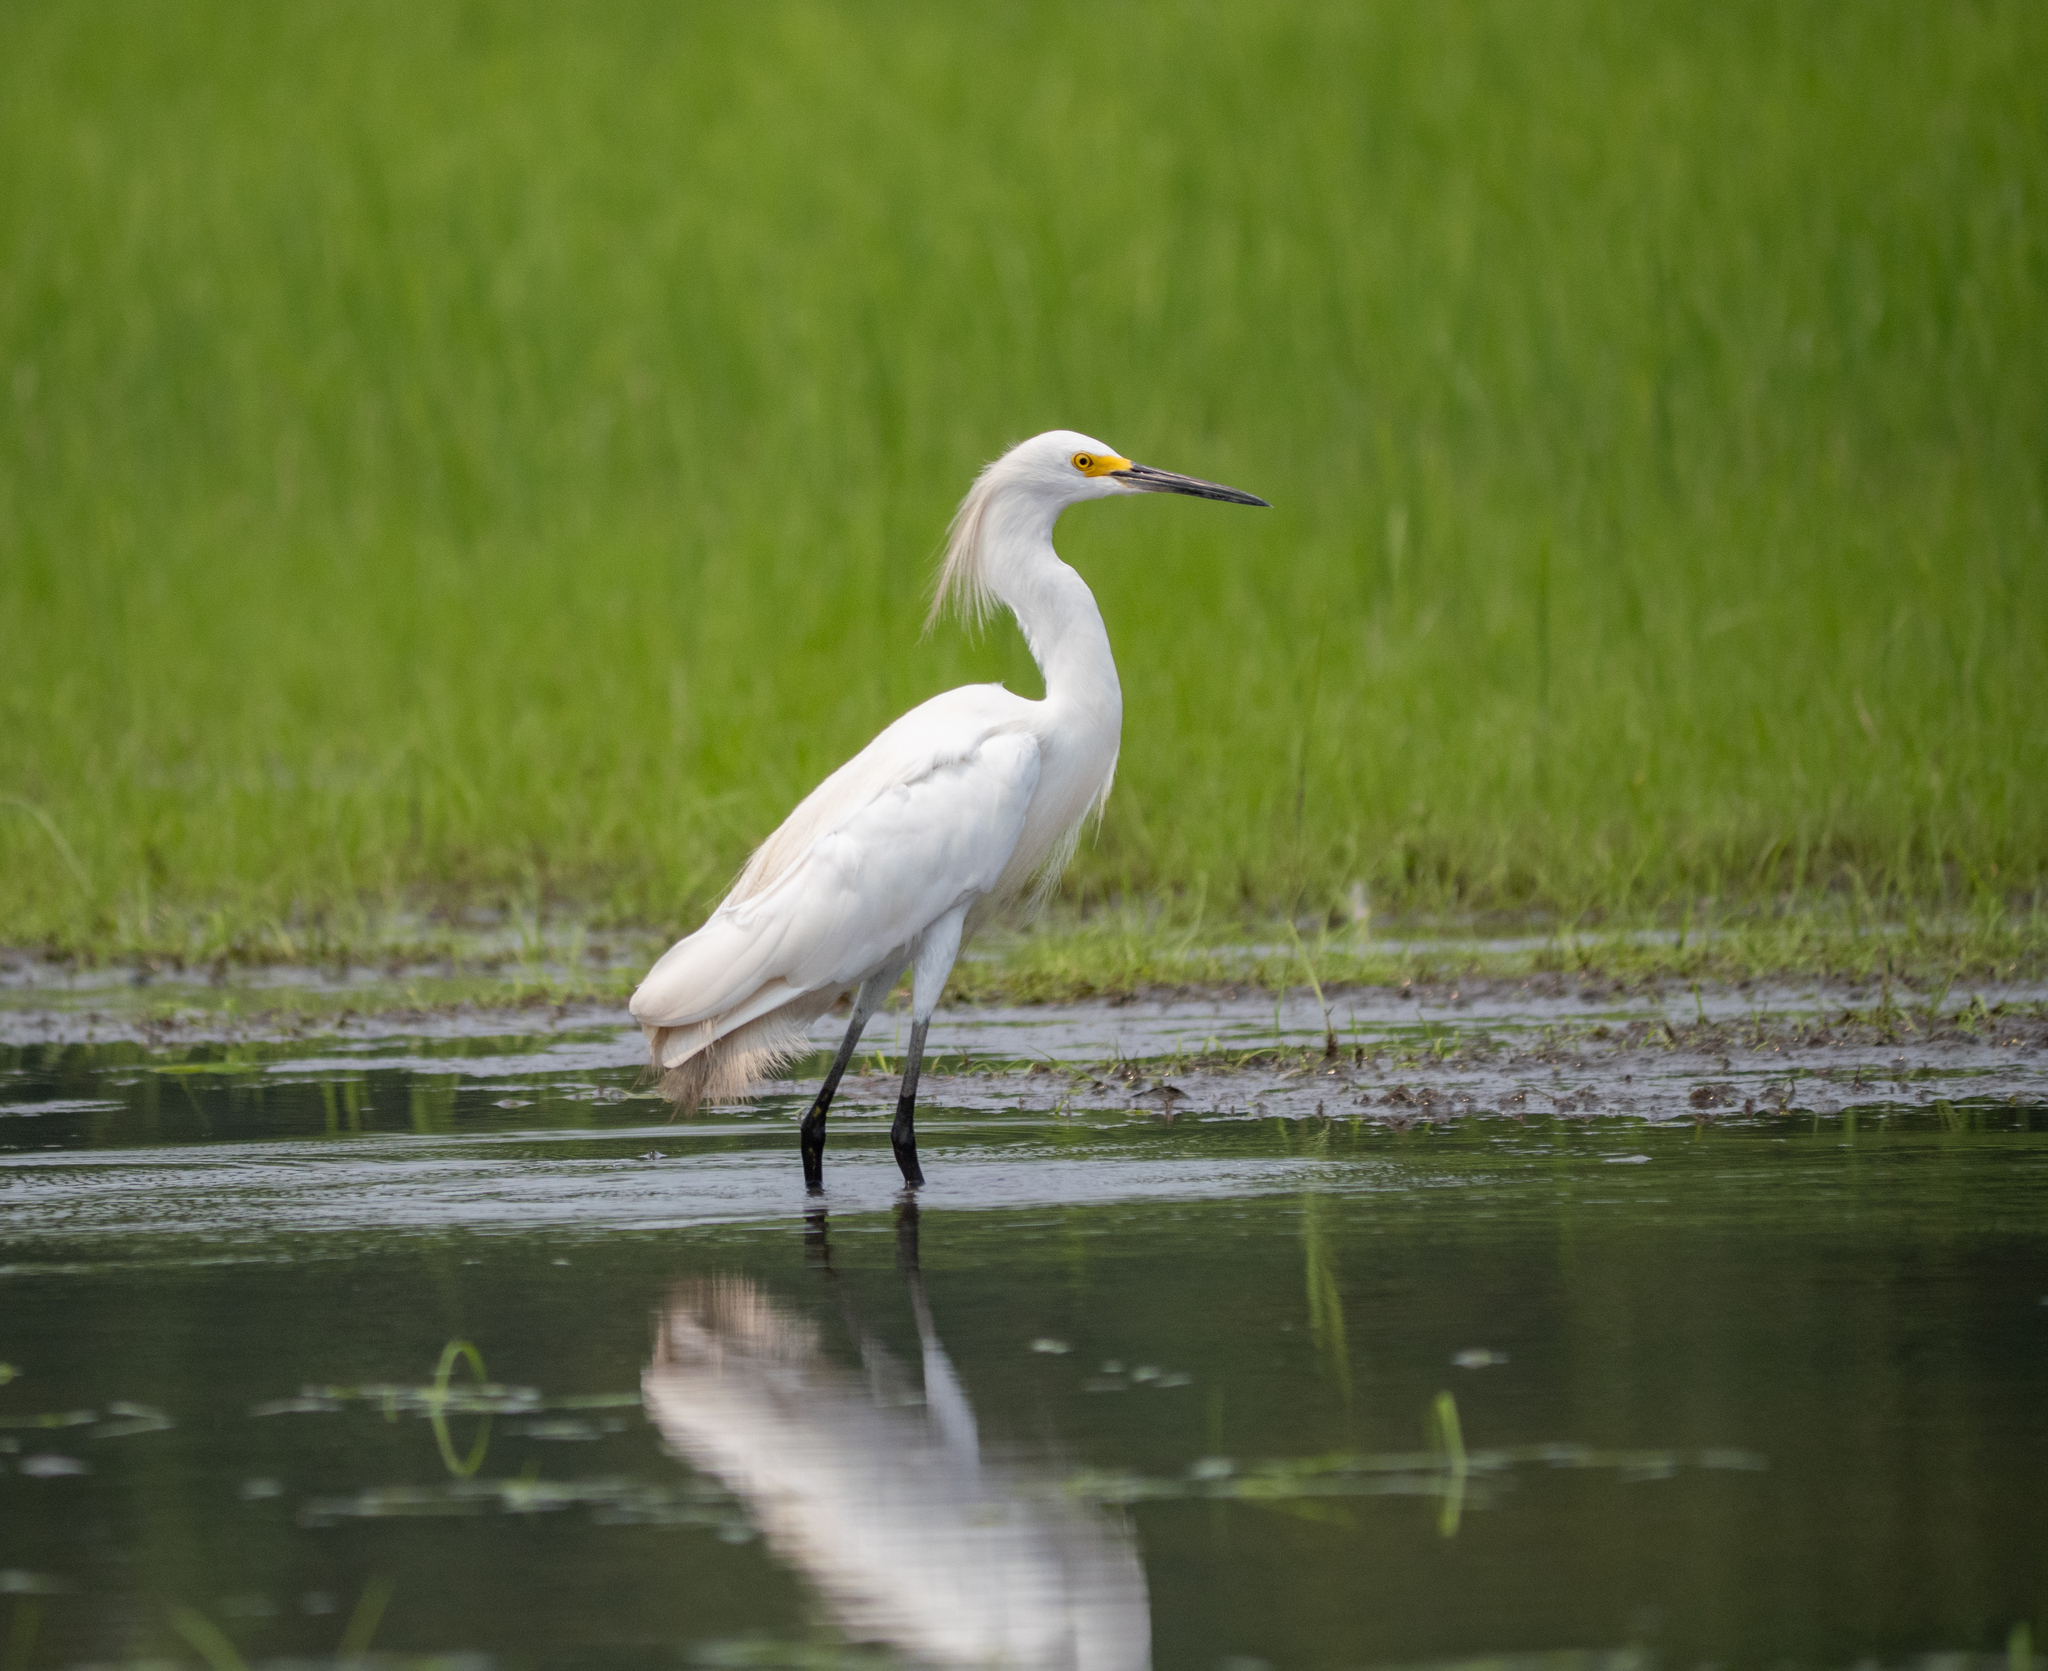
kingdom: Animalia
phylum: Chordata
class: Aves
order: Pelecaniformes
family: Ardeidae
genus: Egretta
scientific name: Egretta thula
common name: Snowy egret
